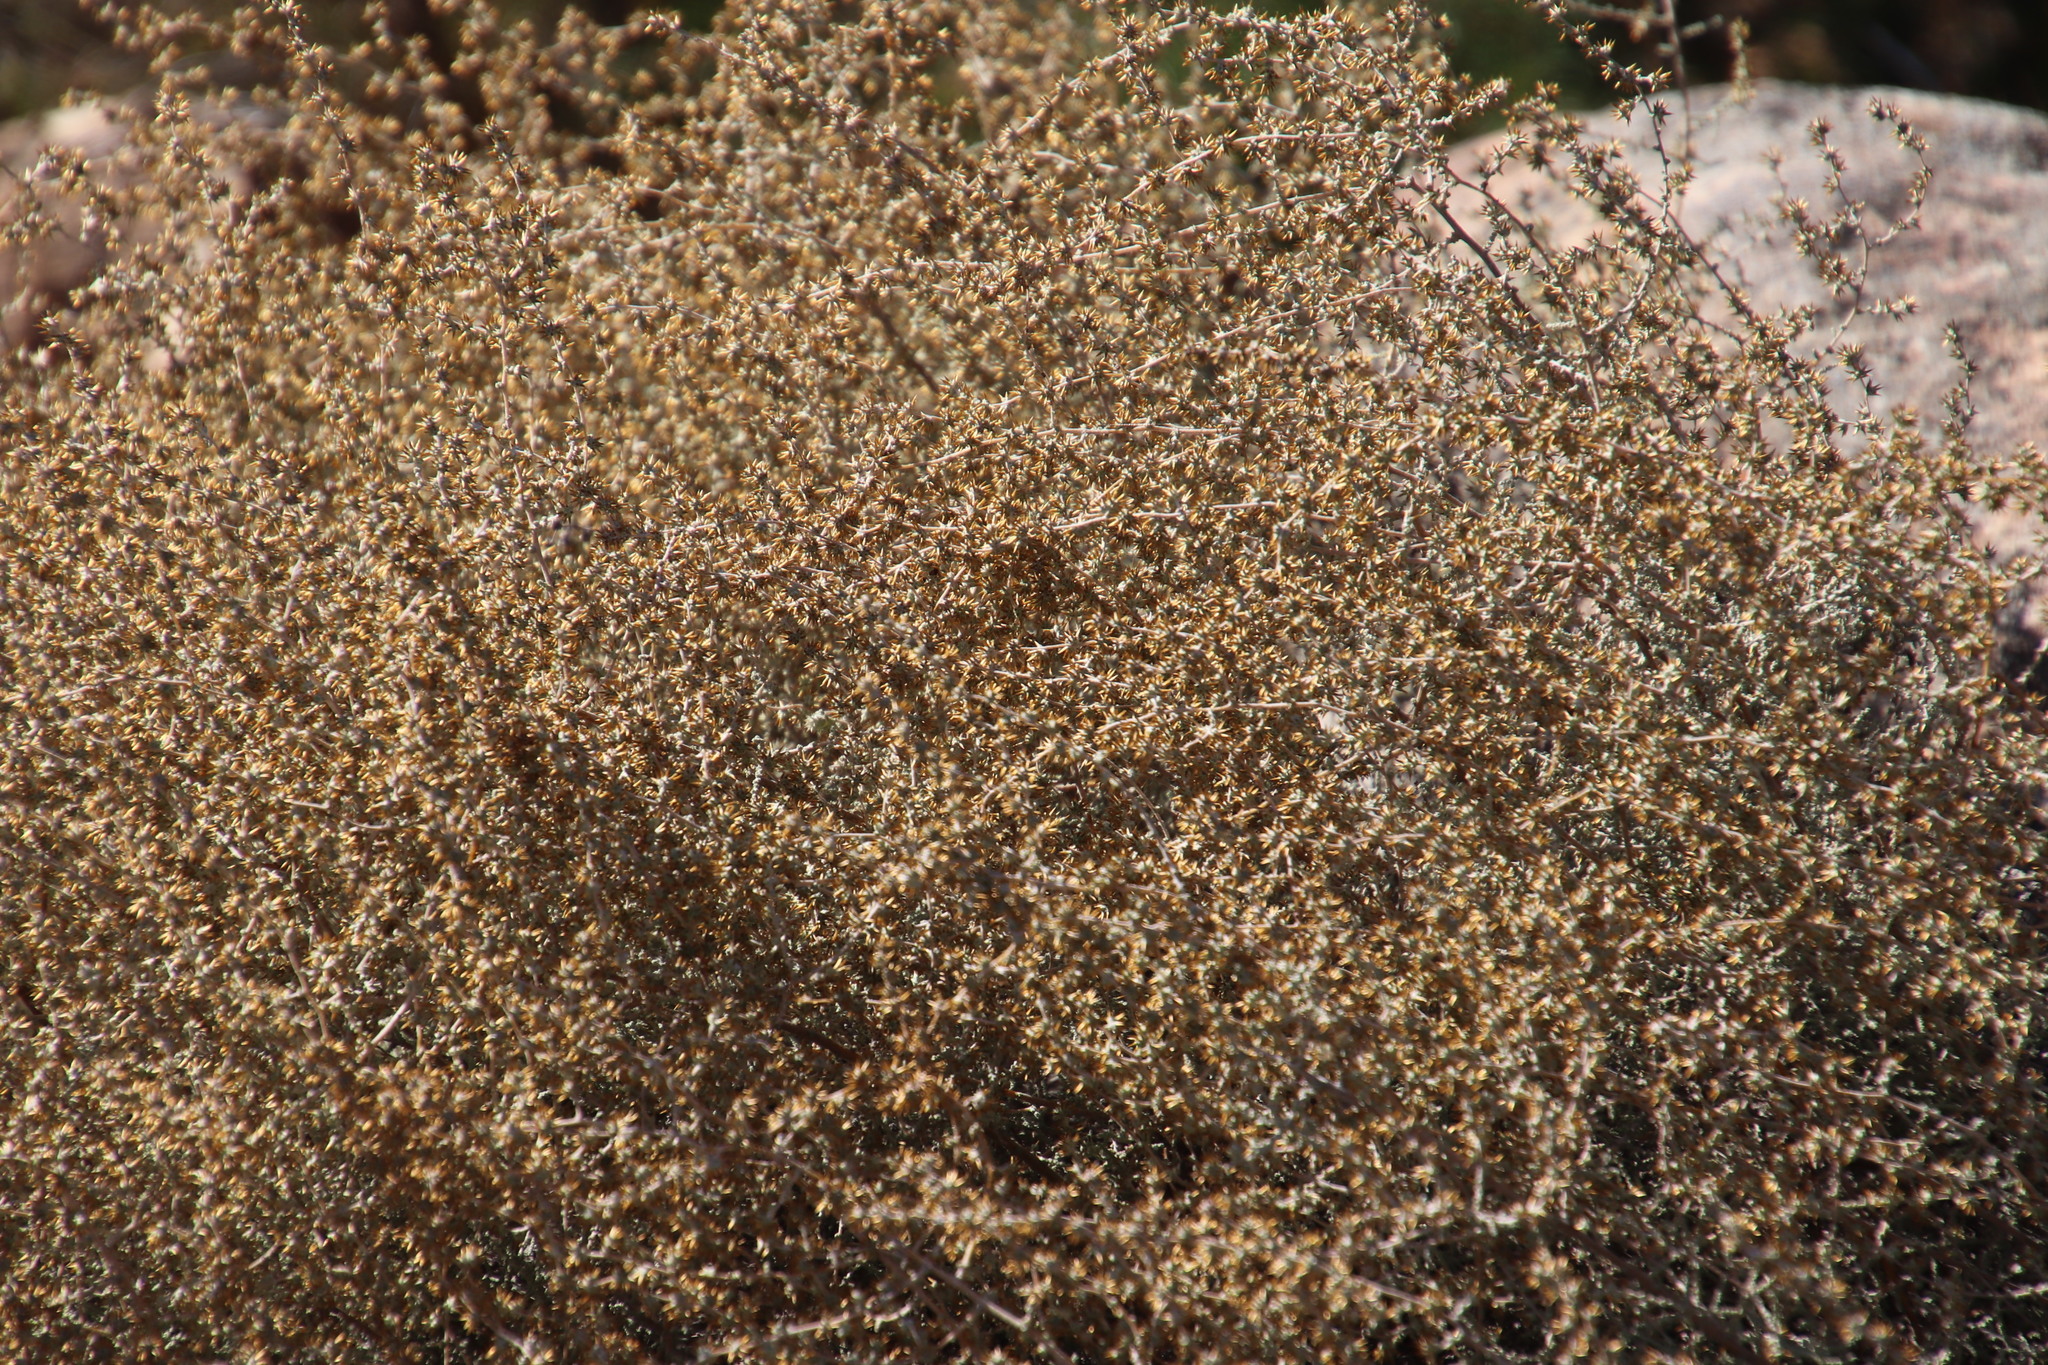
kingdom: Plantae
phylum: Tracheophyta
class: Magnoliopsida
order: Asterales
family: Asteraceae
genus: Seriphium
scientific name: Seriphium plumosum
